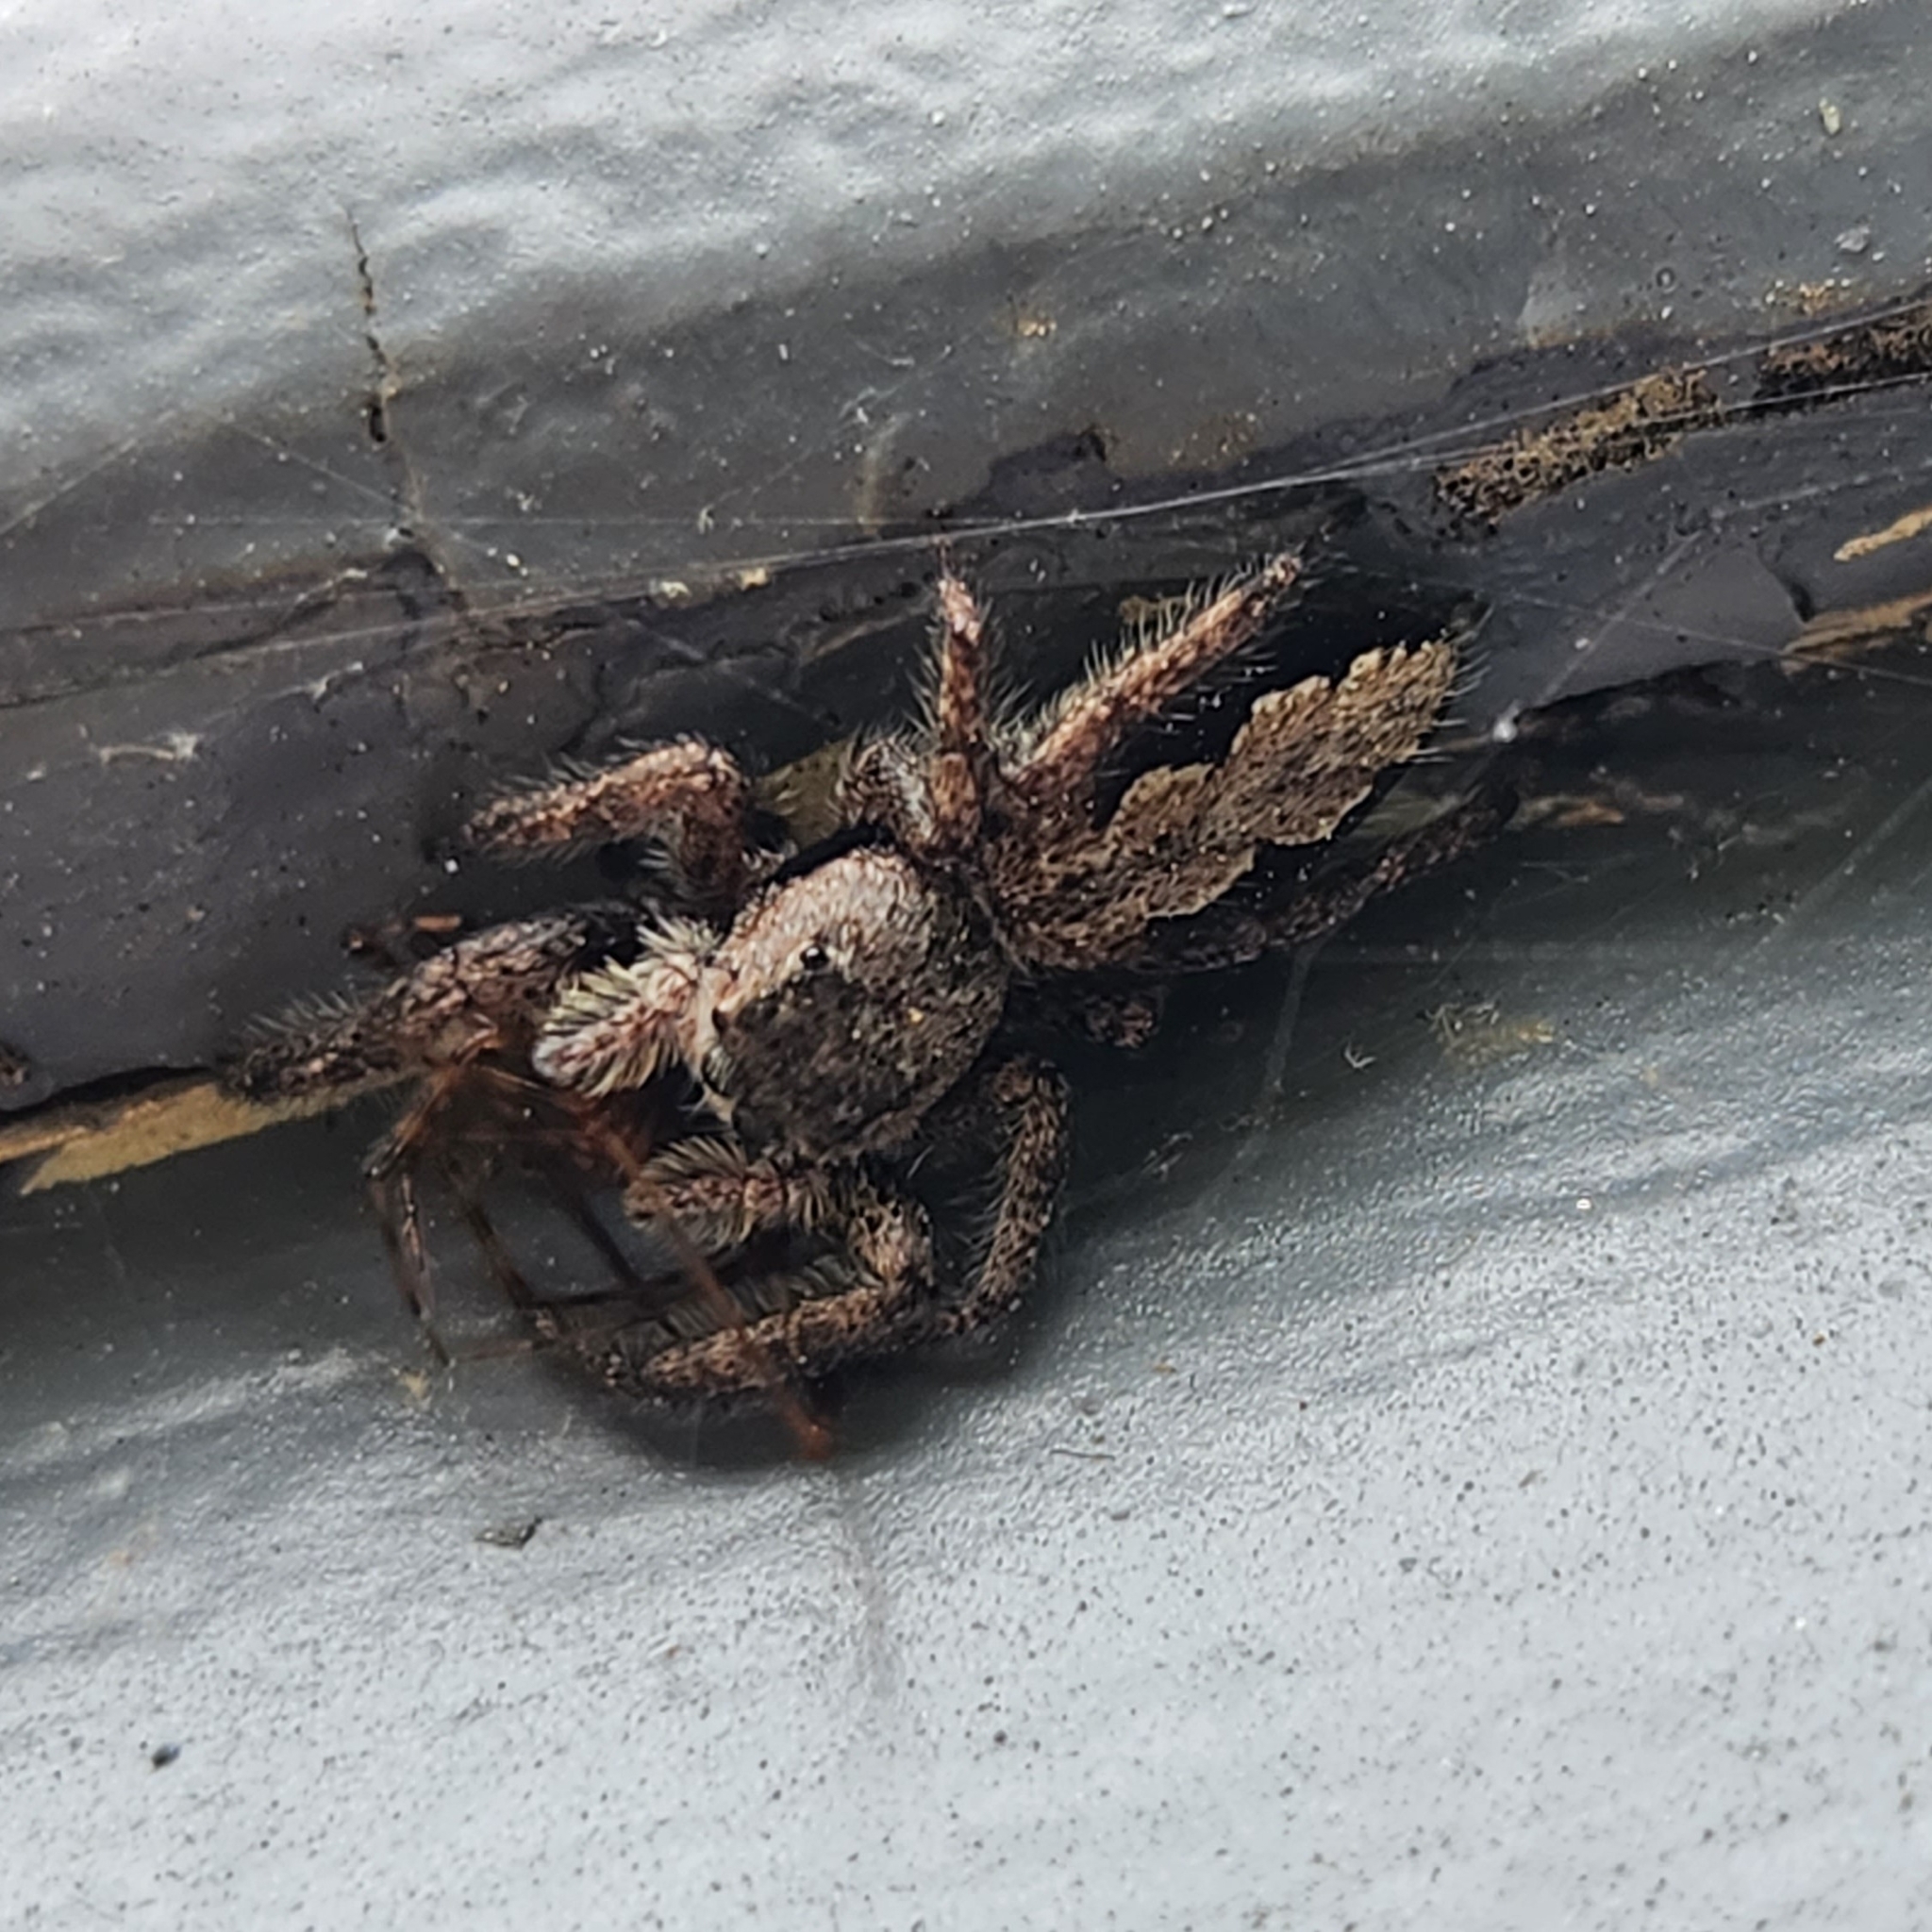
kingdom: Animalia
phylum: Arthropoda
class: Arachnida
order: Araneae
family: Salticidae
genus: Platycryptus
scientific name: Platycryptus undatus
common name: Tan jumping spider
